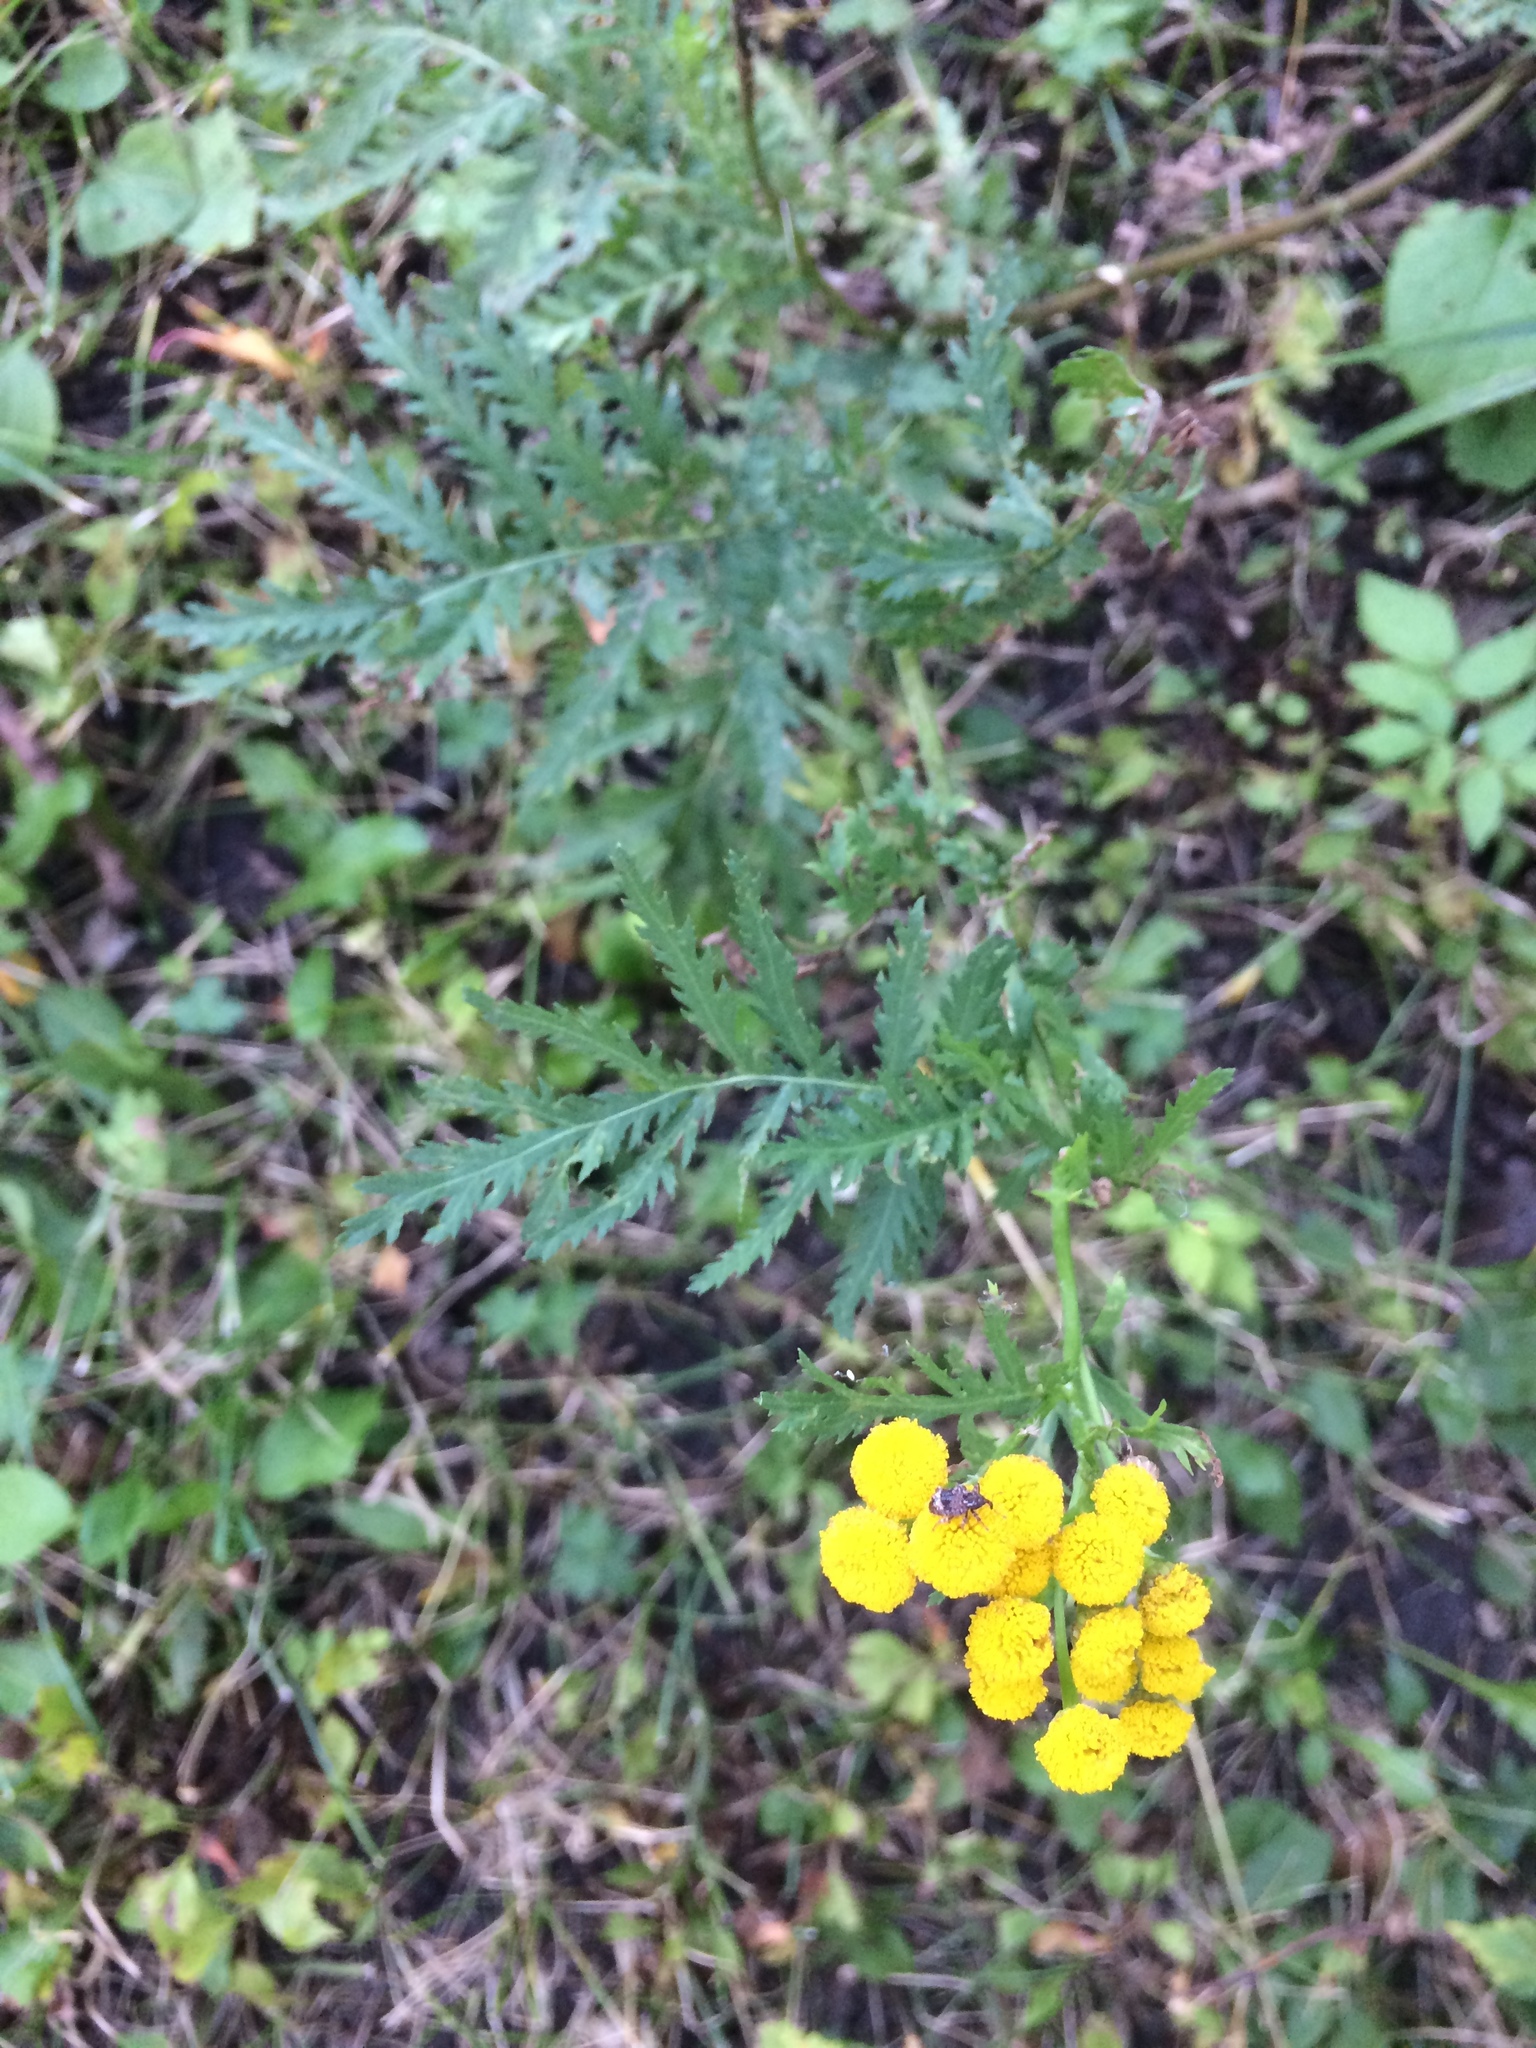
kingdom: Plantae
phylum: Tracheophyta
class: Magnoliopsida
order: Asterales
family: Asteraceae
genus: Tanacetum
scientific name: Tanacetum vulgare
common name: Common tansy
